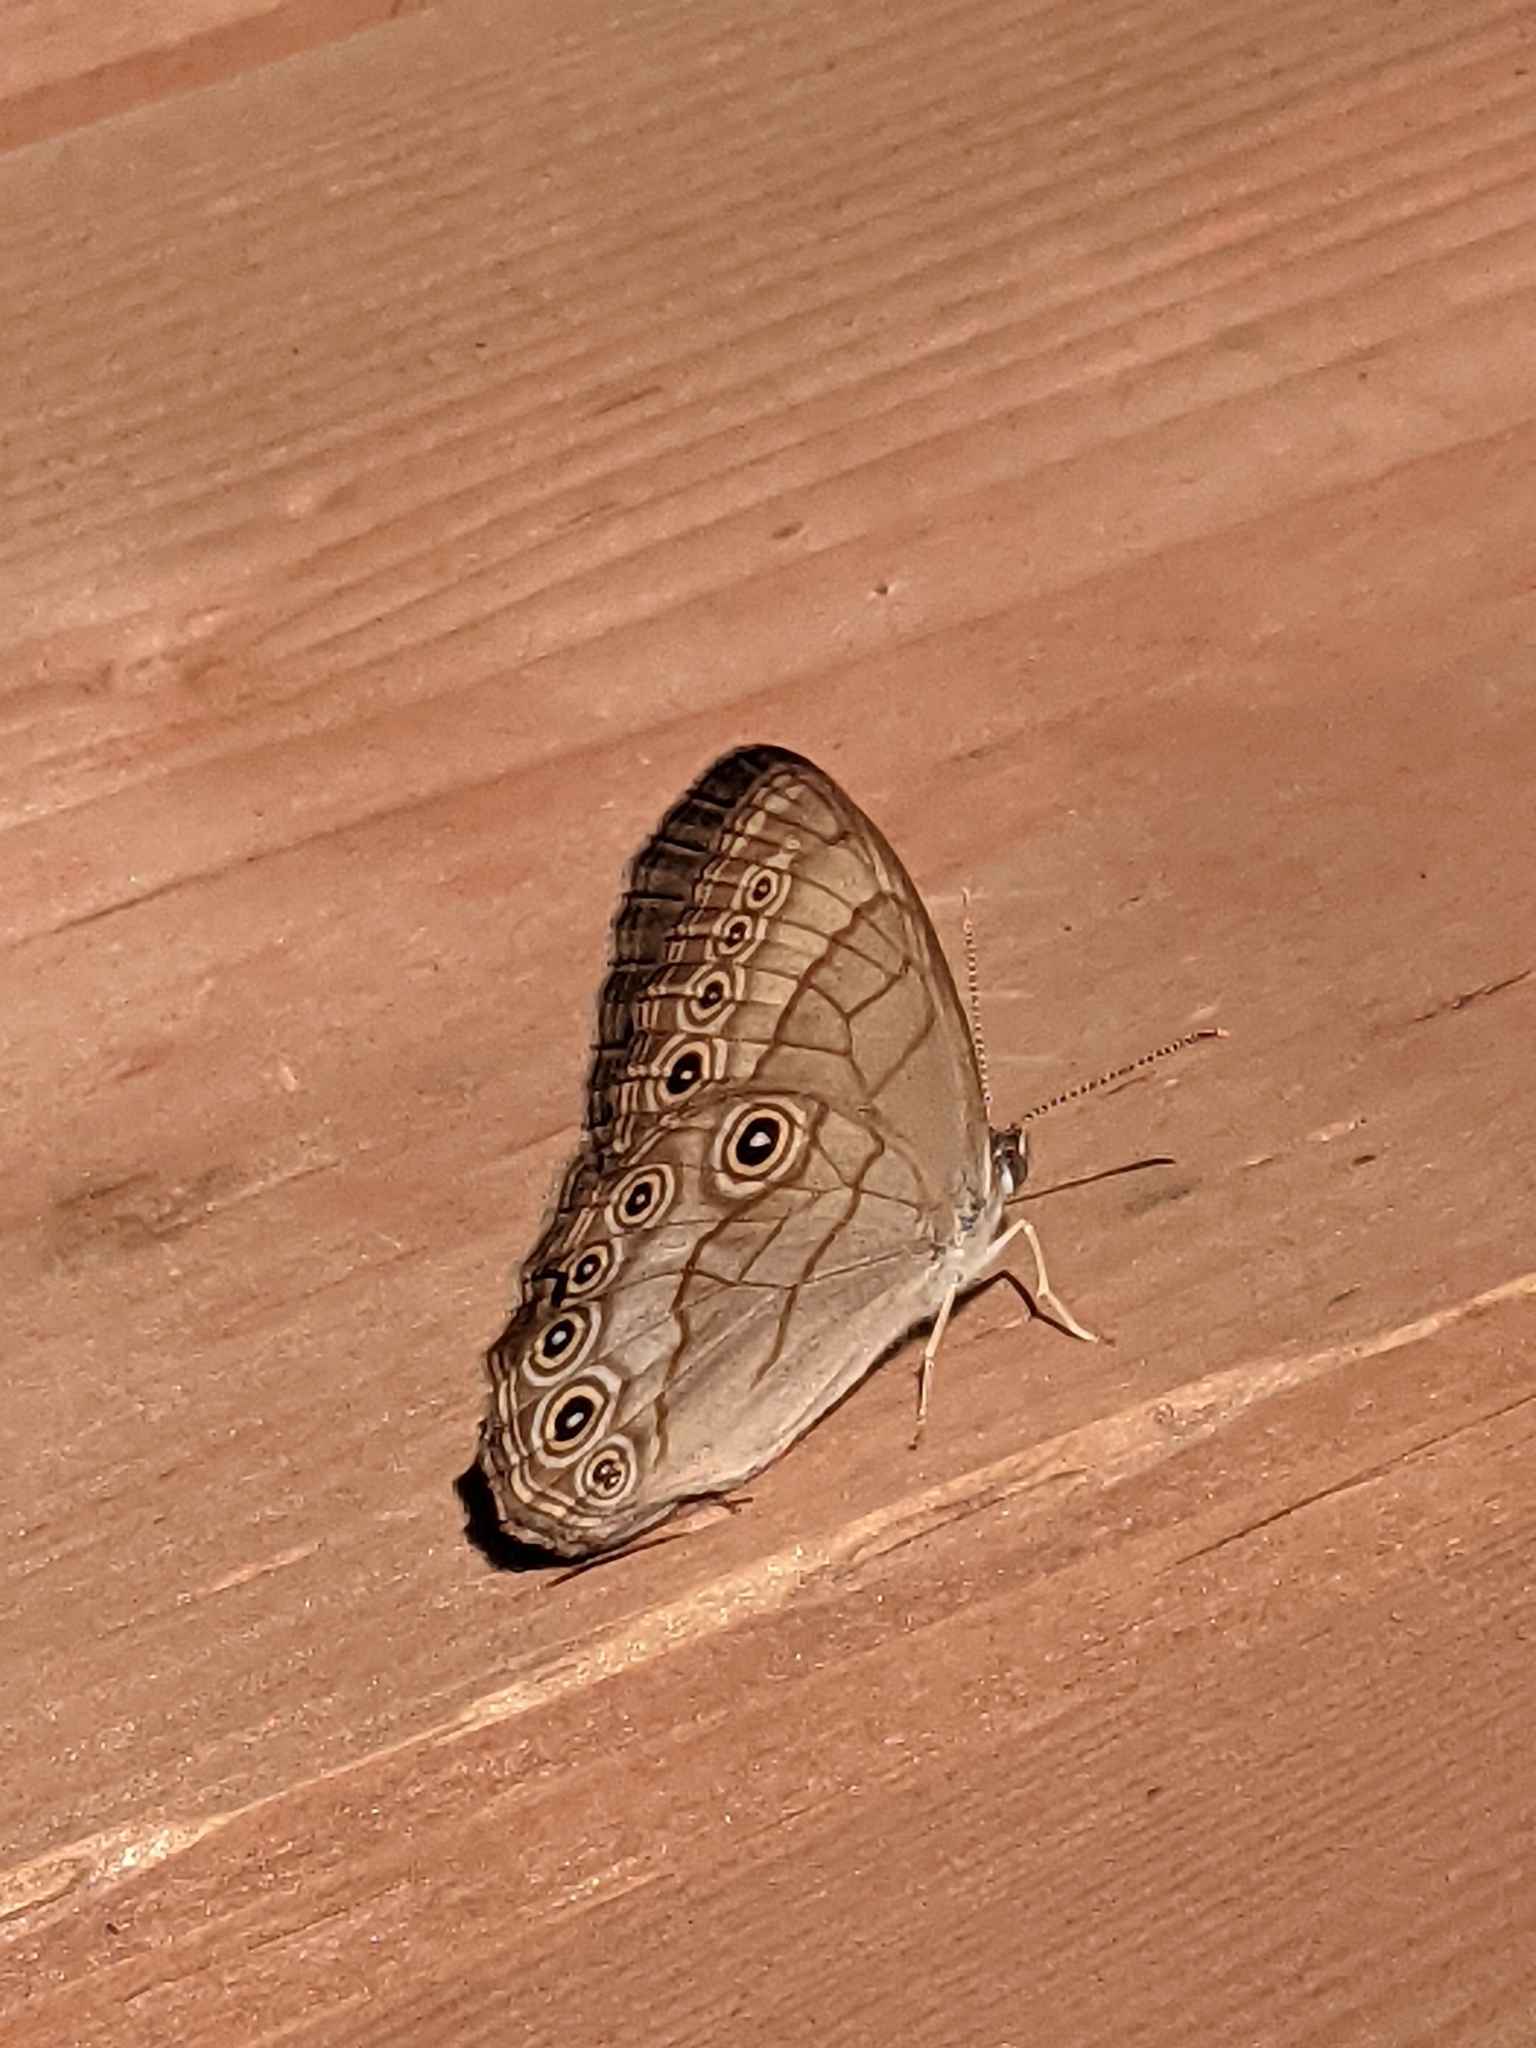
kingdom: Animalia
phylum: Arthropoda
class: Insecta
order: Lepidoptera
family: Nymphalidae
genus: Lethe
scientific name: Lethe eurydice
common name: Eyed brown
